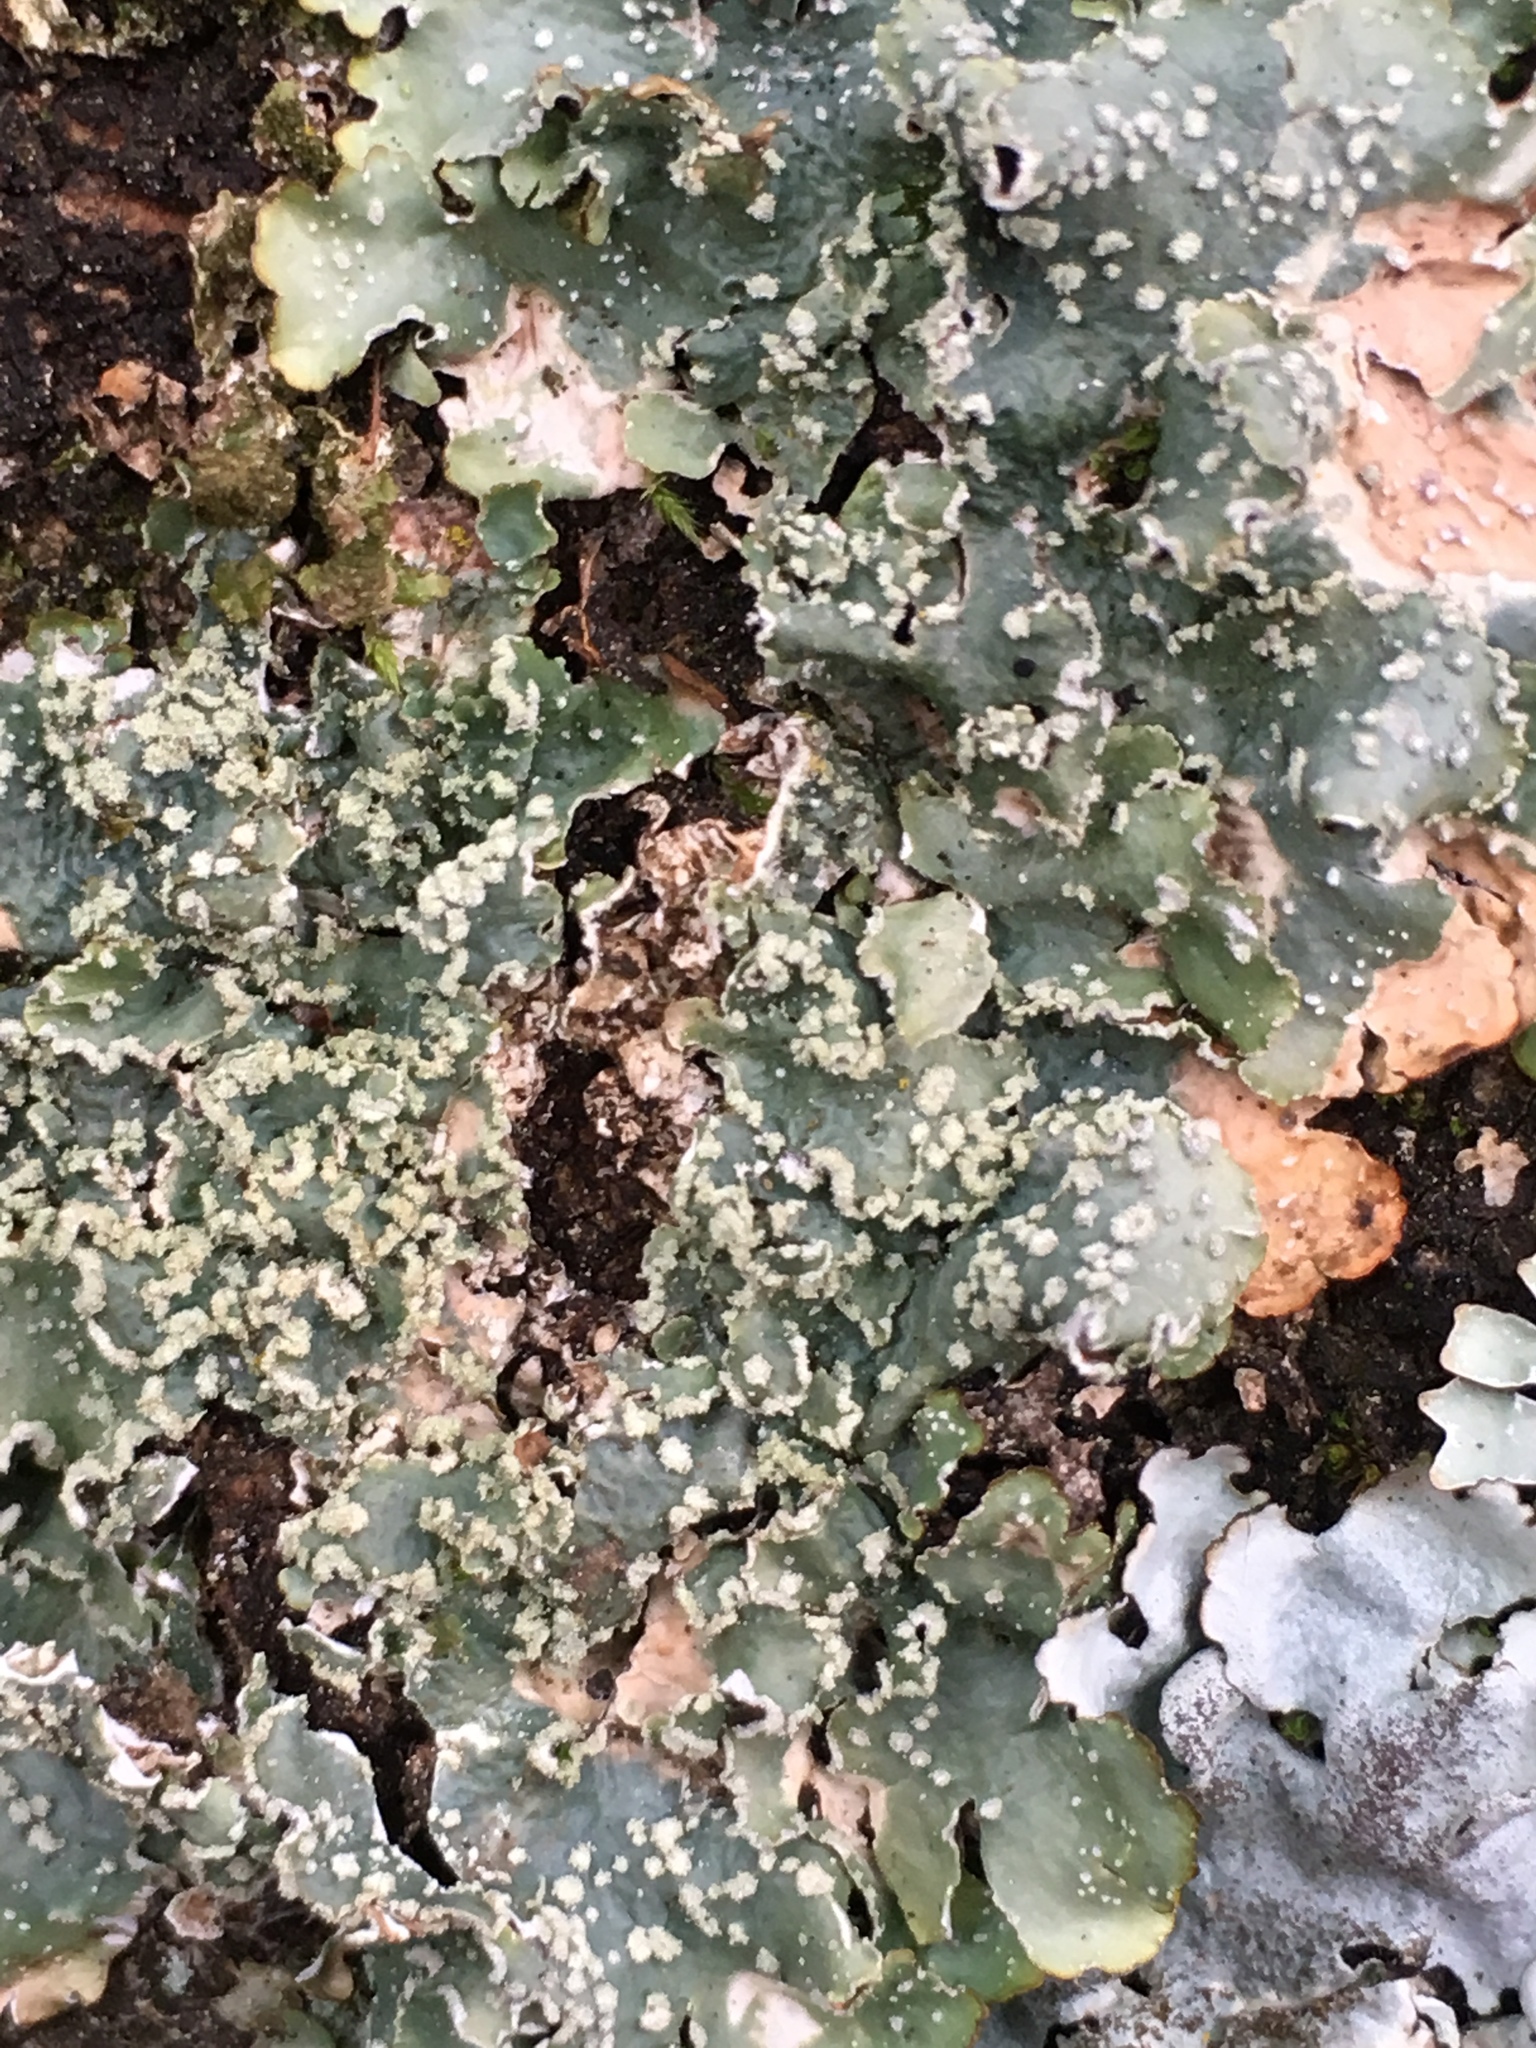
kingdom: Fungi
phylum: Ascomycota
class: Lecanoromycetes
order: Lecanorales
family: Parmeliaceae
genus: Punctelia
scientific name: Punctelia jeckeri
